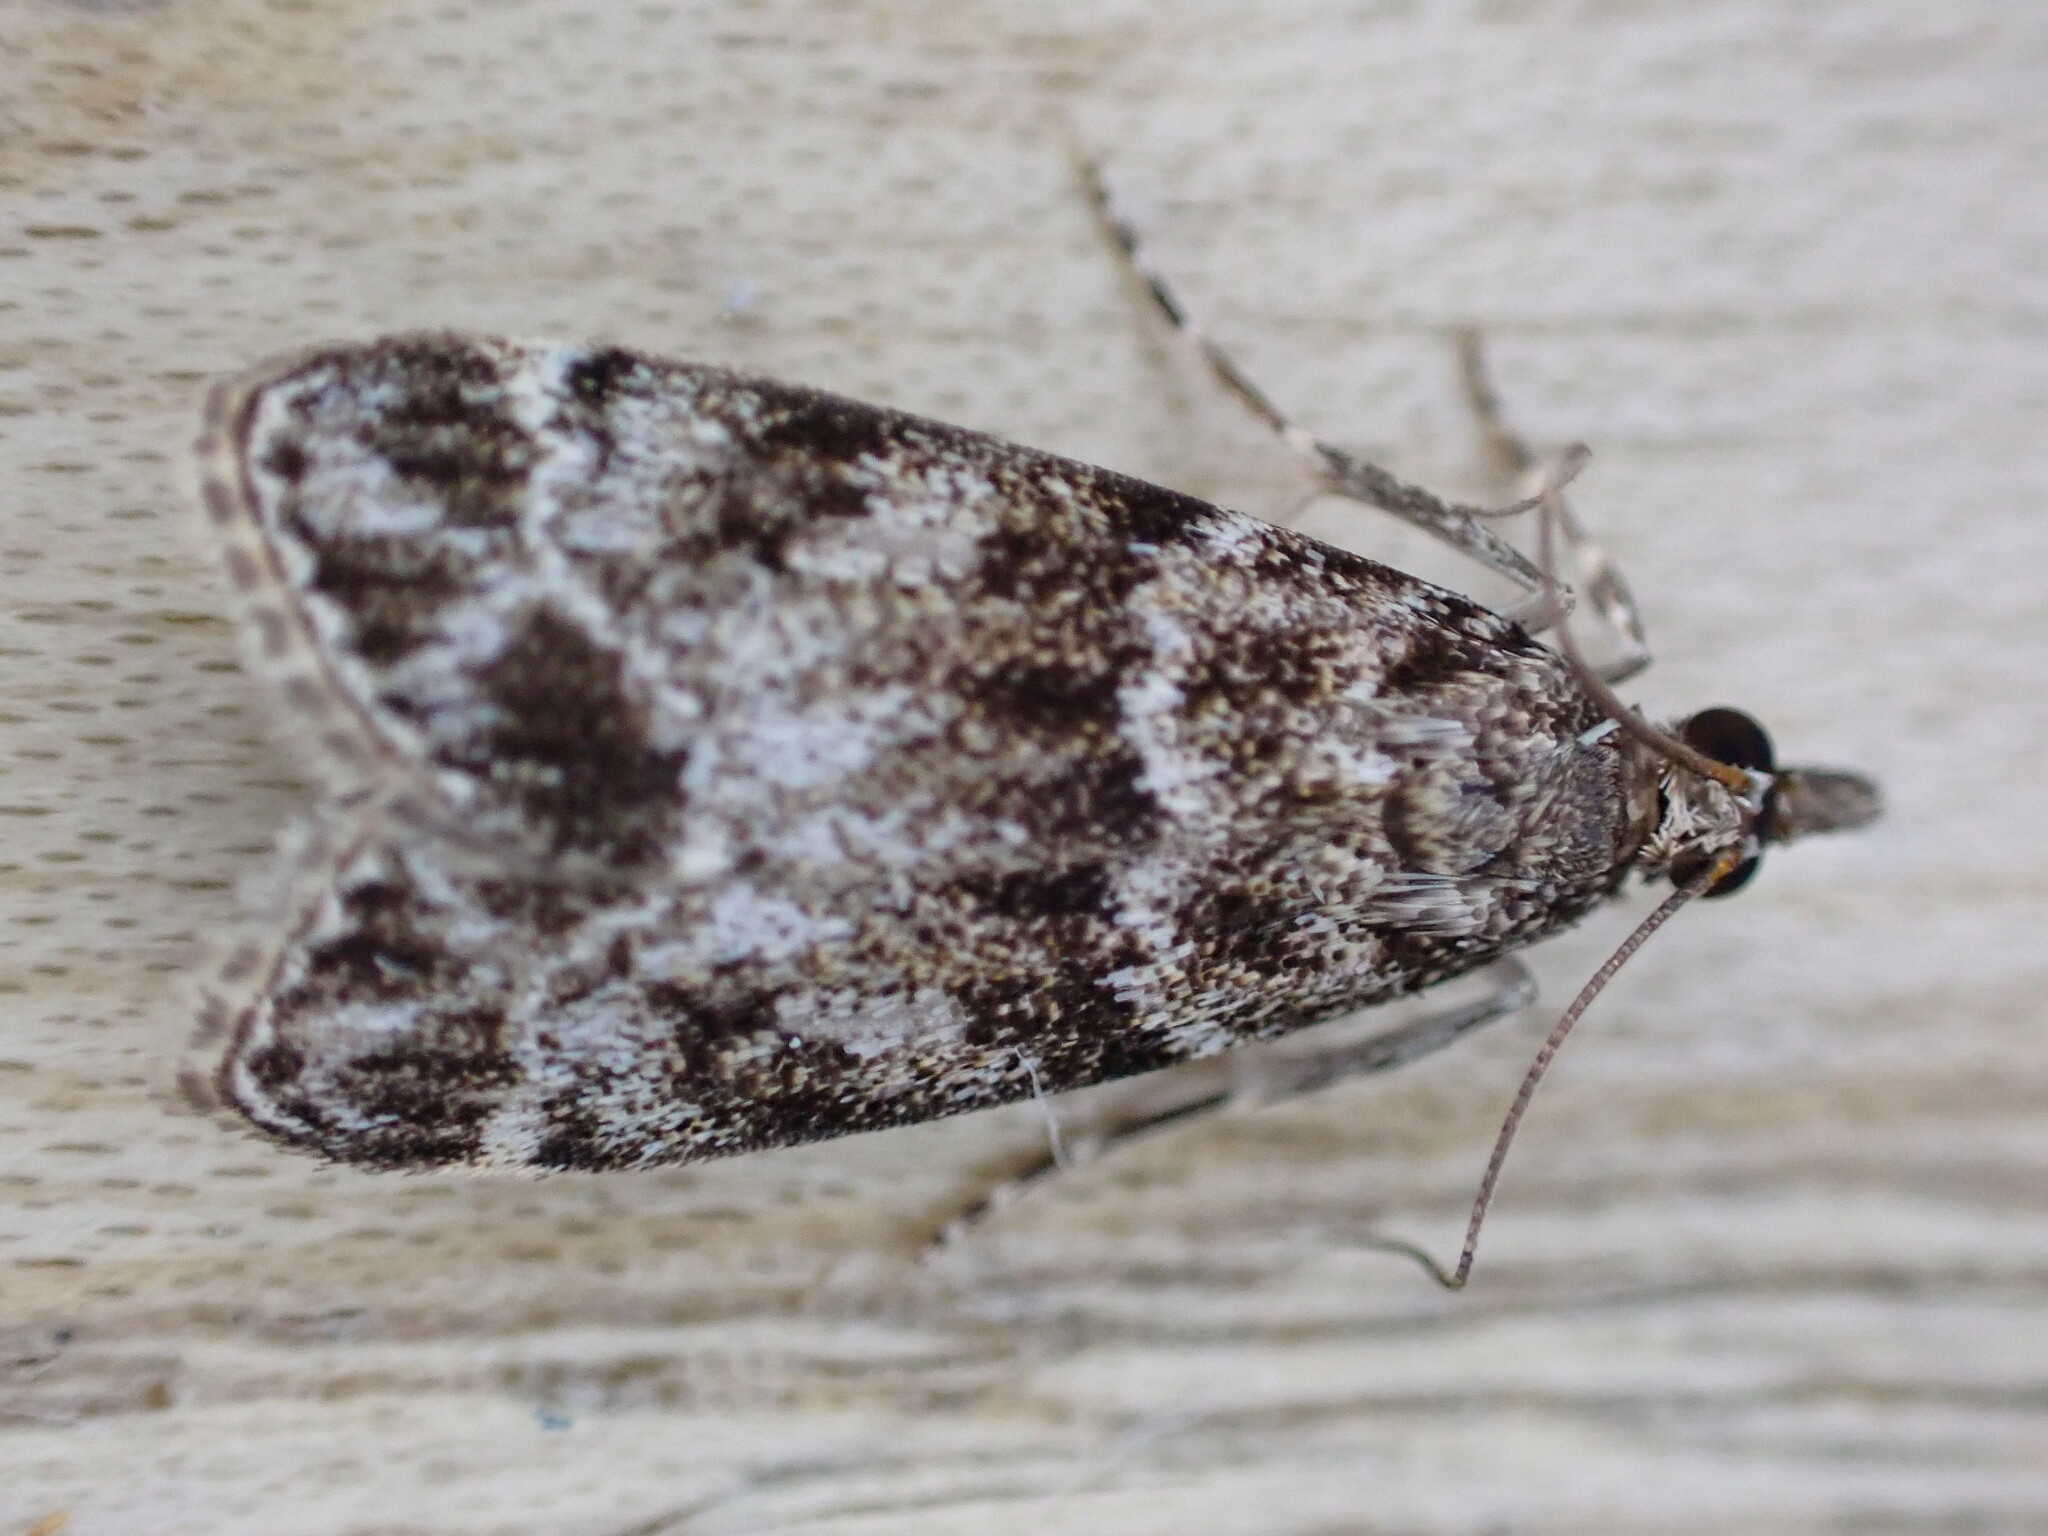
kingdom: Animalia
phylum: Arthropoda
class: Insecta
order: Lepidoptera
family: Crambidae
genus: Eudonia
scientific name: Eudonia mercurella
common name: Small grey
